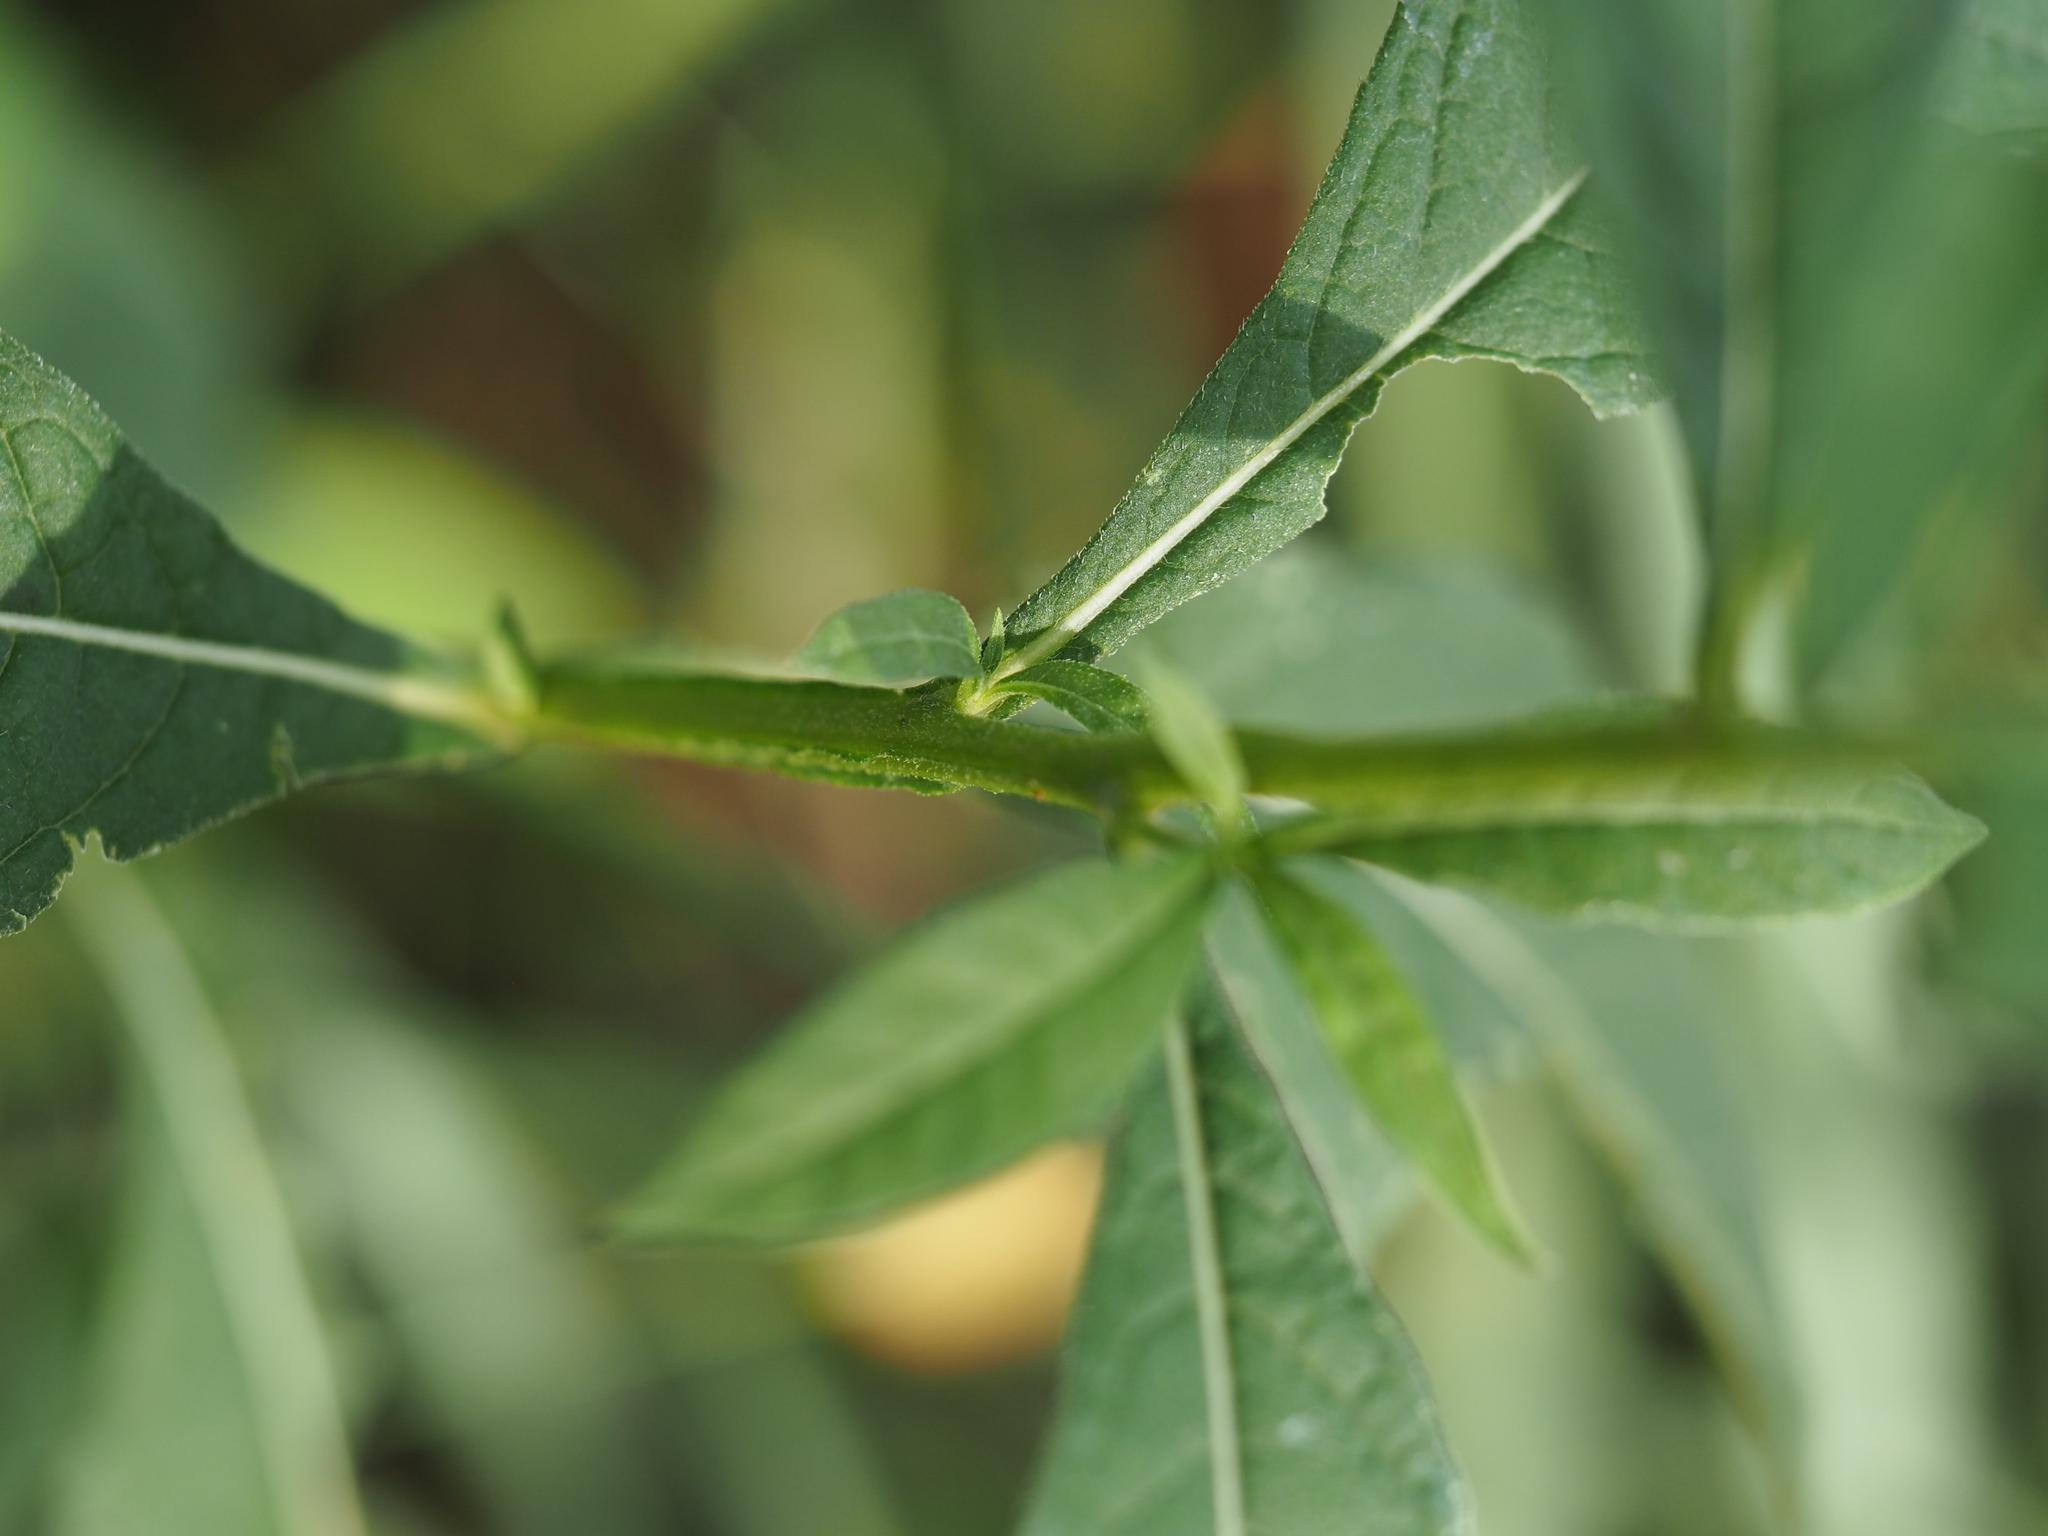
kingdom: Plantae
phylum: Tracheophyta
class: Magnoliopsida
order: Asterales
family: Asteraceae
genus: Verbesina
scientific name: Verbesina alternifolia
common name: Wingstem
